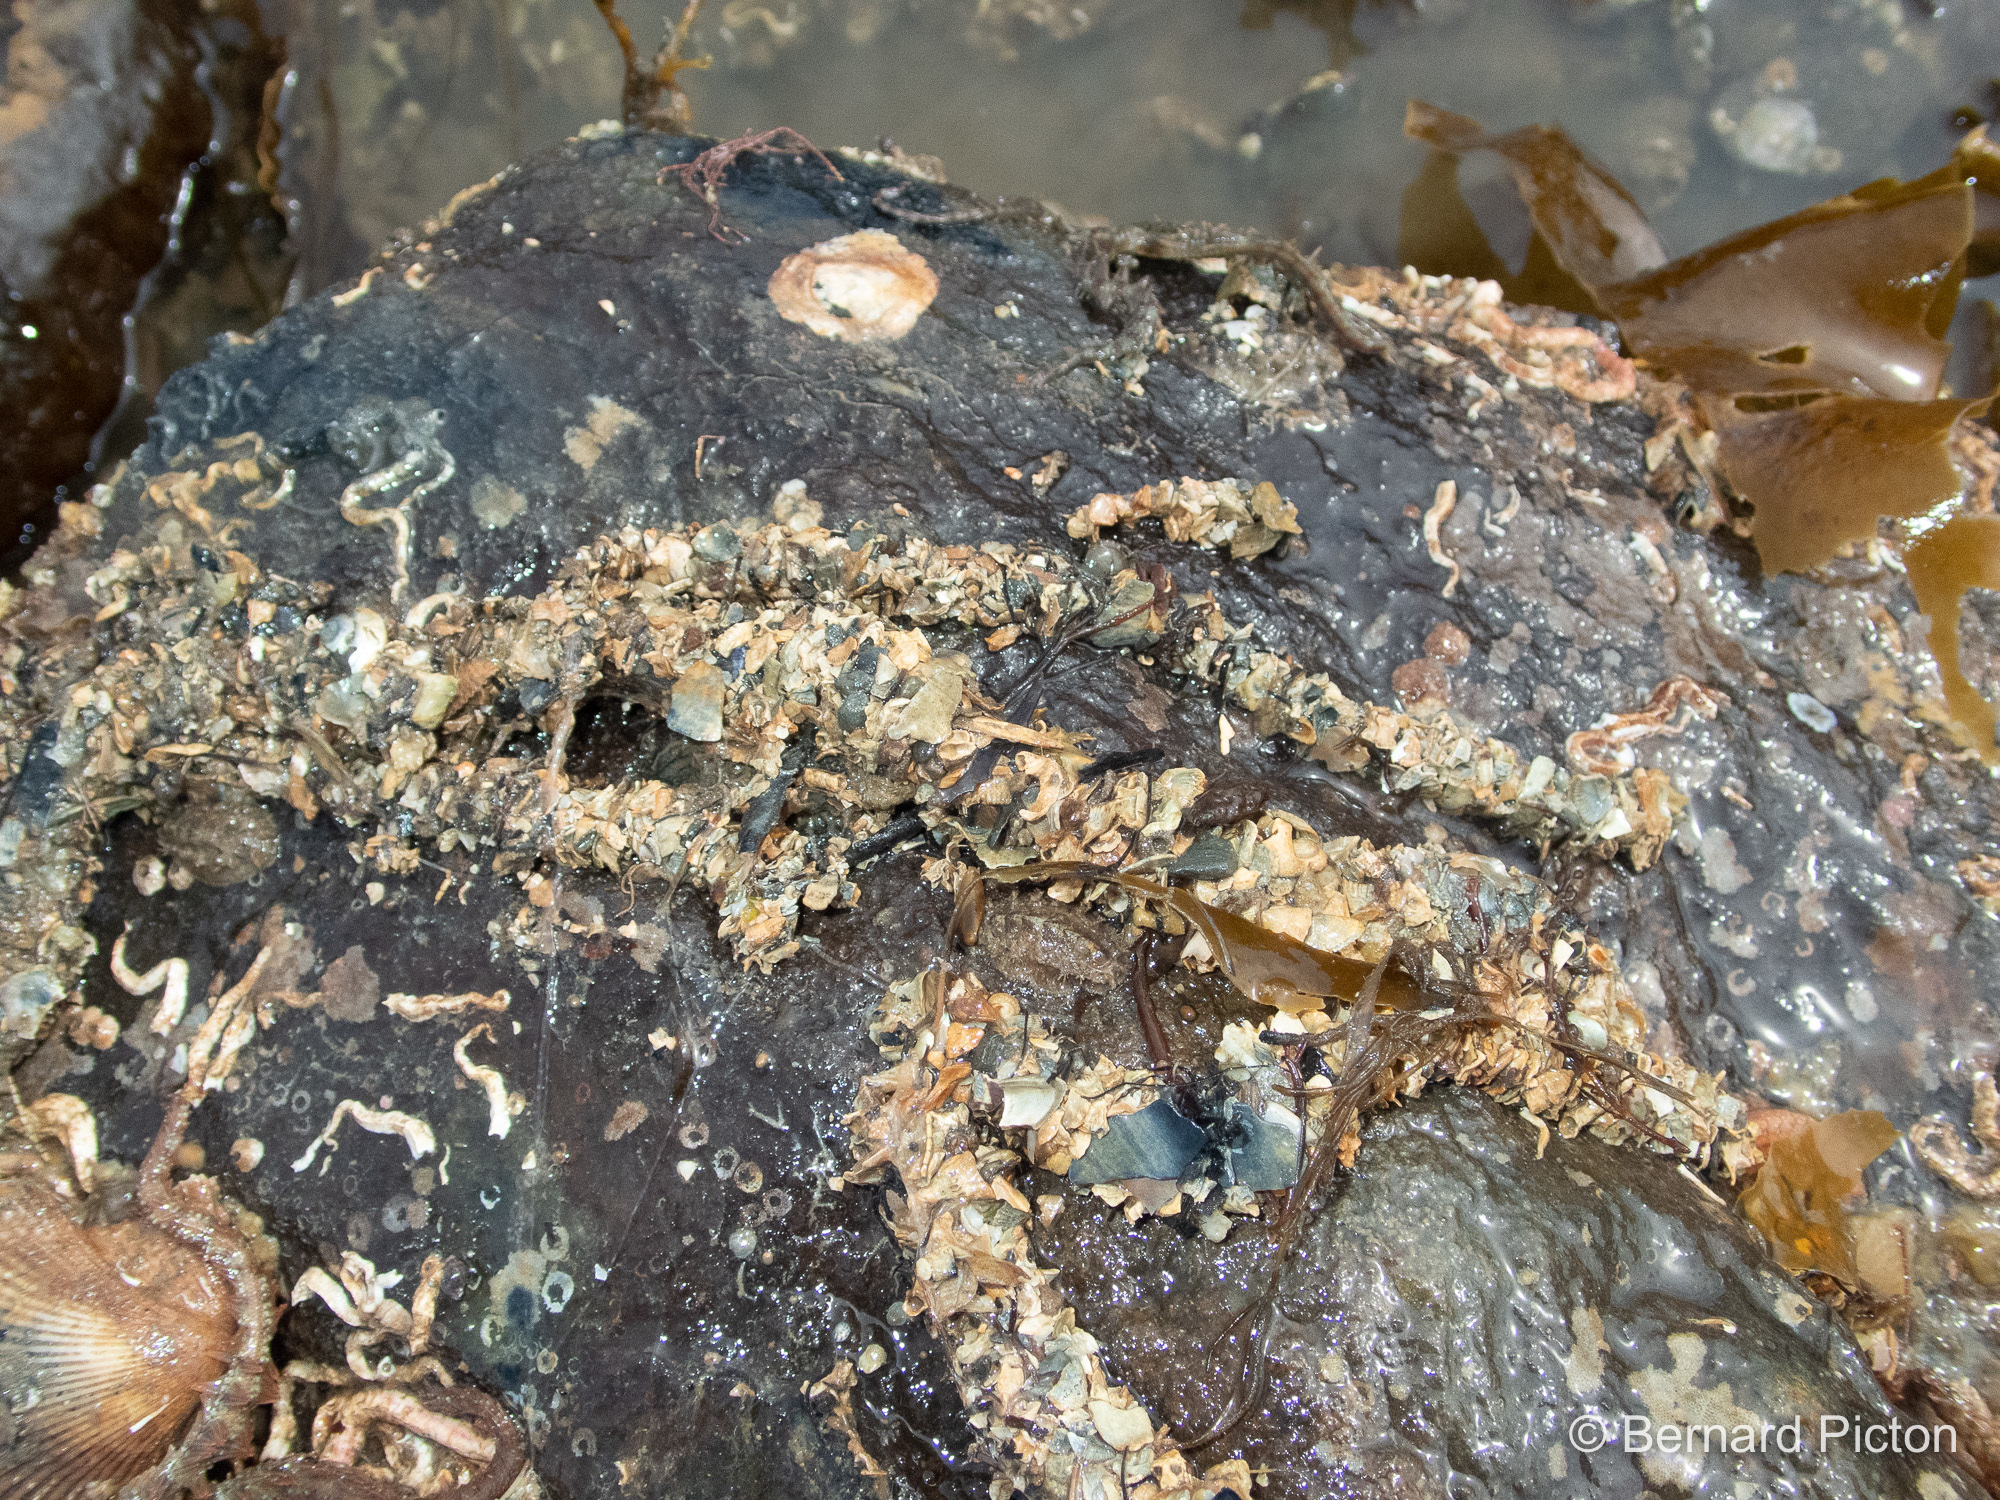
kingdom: Animalia
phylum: Annelida
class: Polychaeta
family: Terebellidae
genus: Eupolymnia
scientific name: Eupolymnia nebulosa
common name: Strawberry worm
